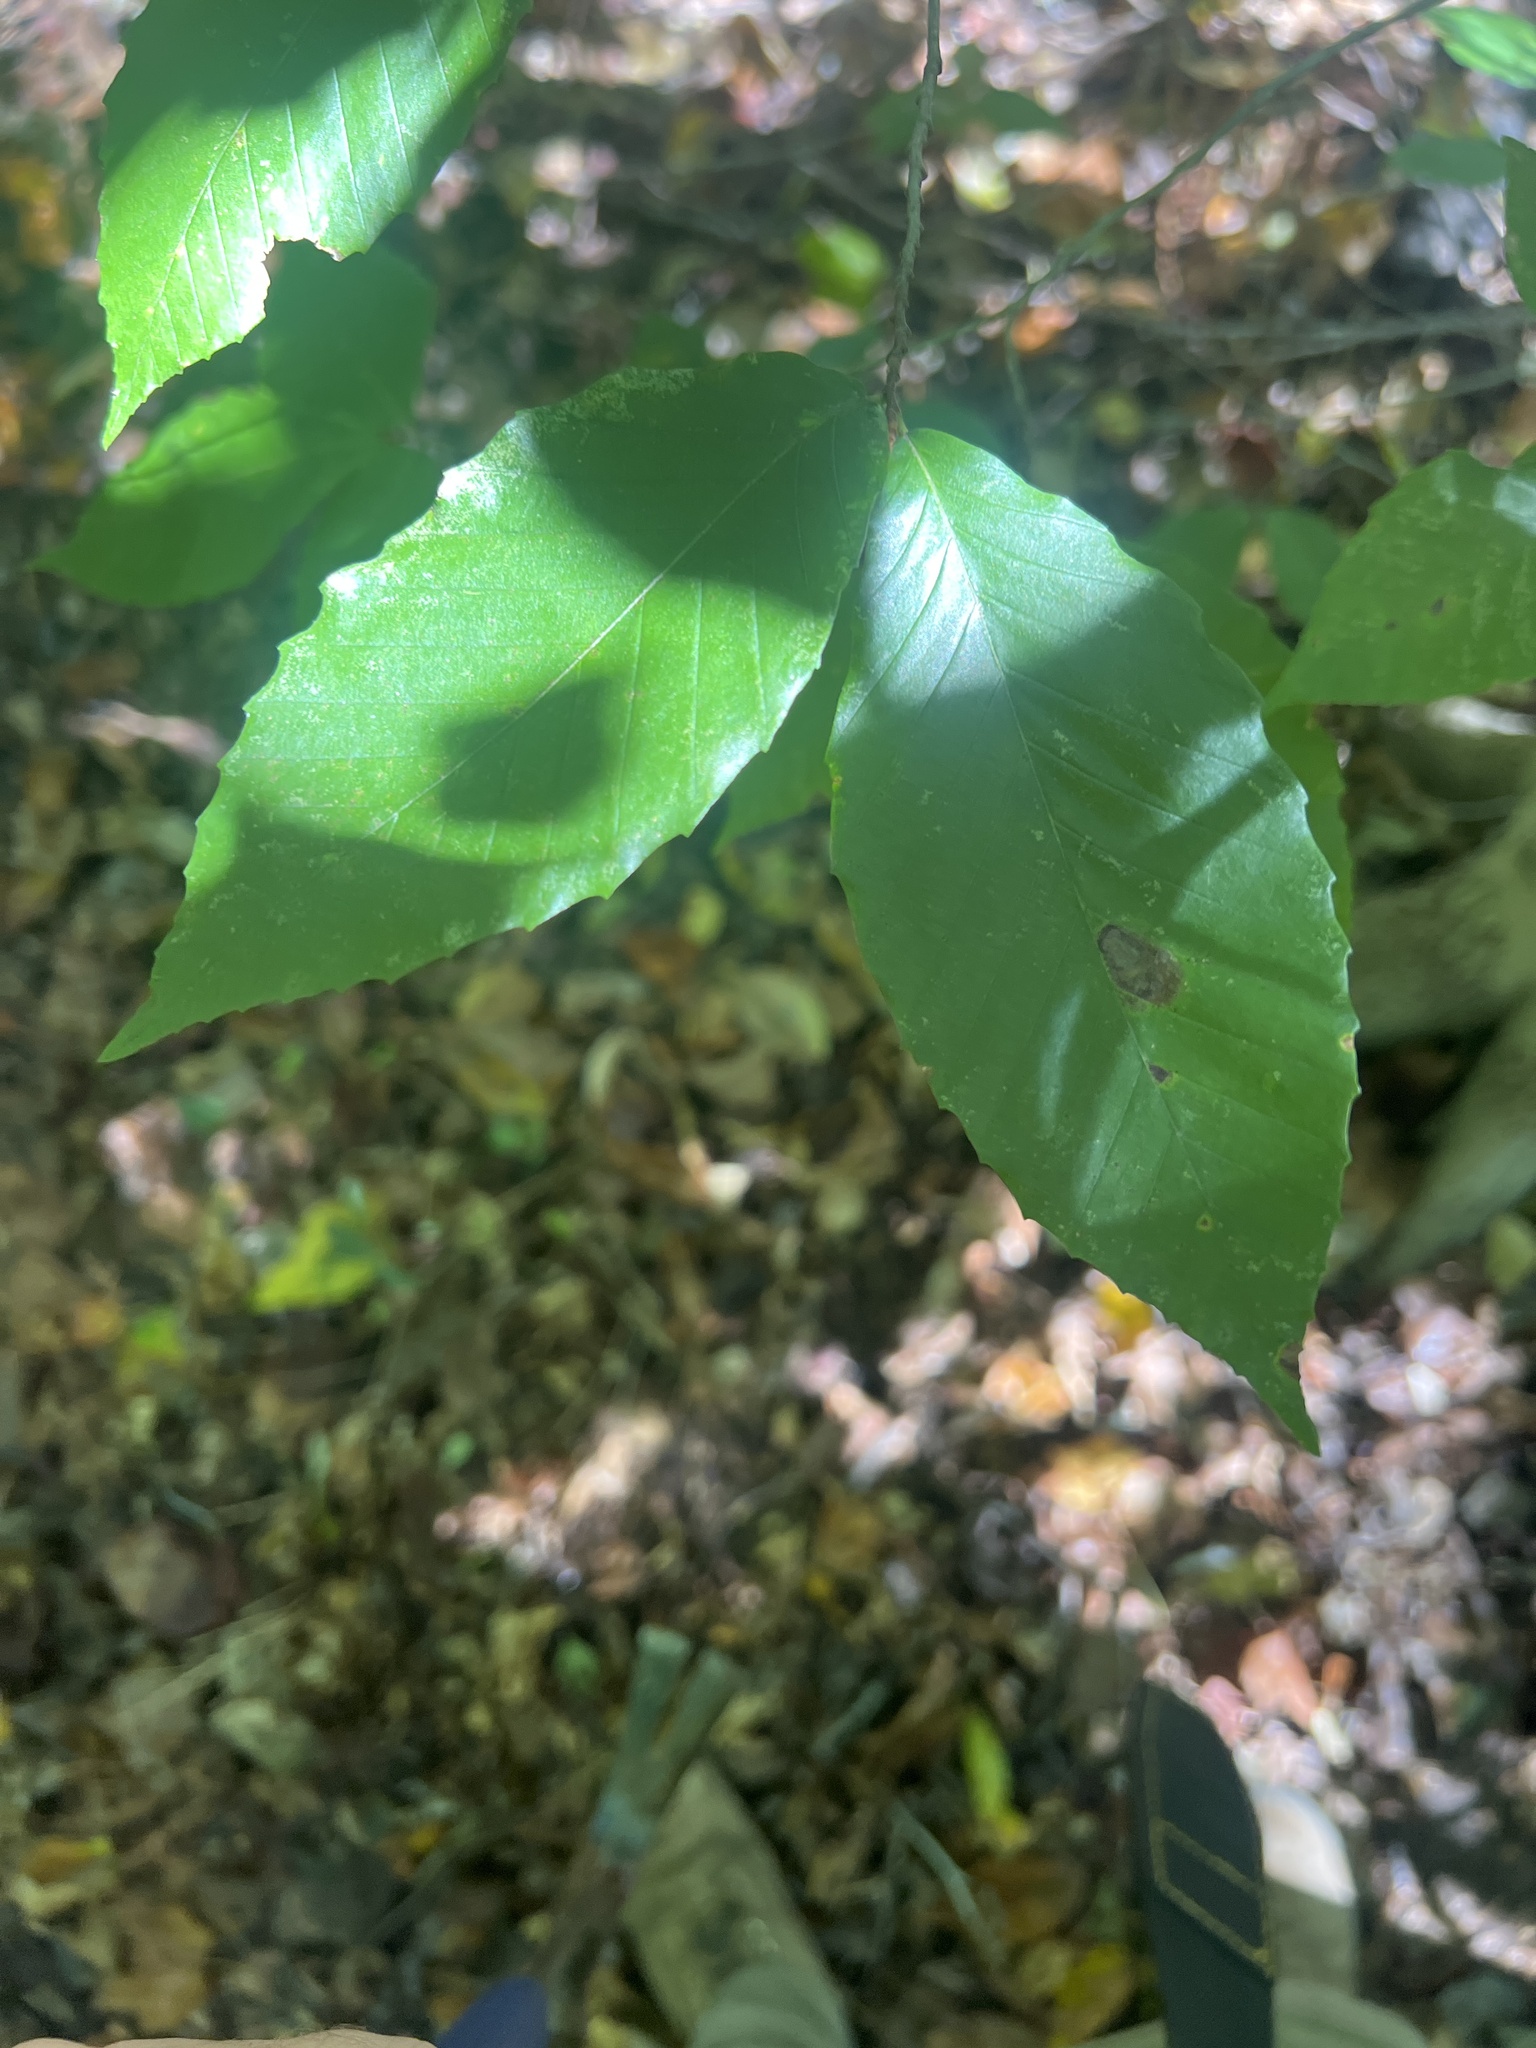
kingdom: Plantae
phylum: Tracheophyta
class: Magnoliopsida
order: Fagales
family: Fagaceae
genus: Fagus
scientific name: Fagus grandifolia
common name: American beech
